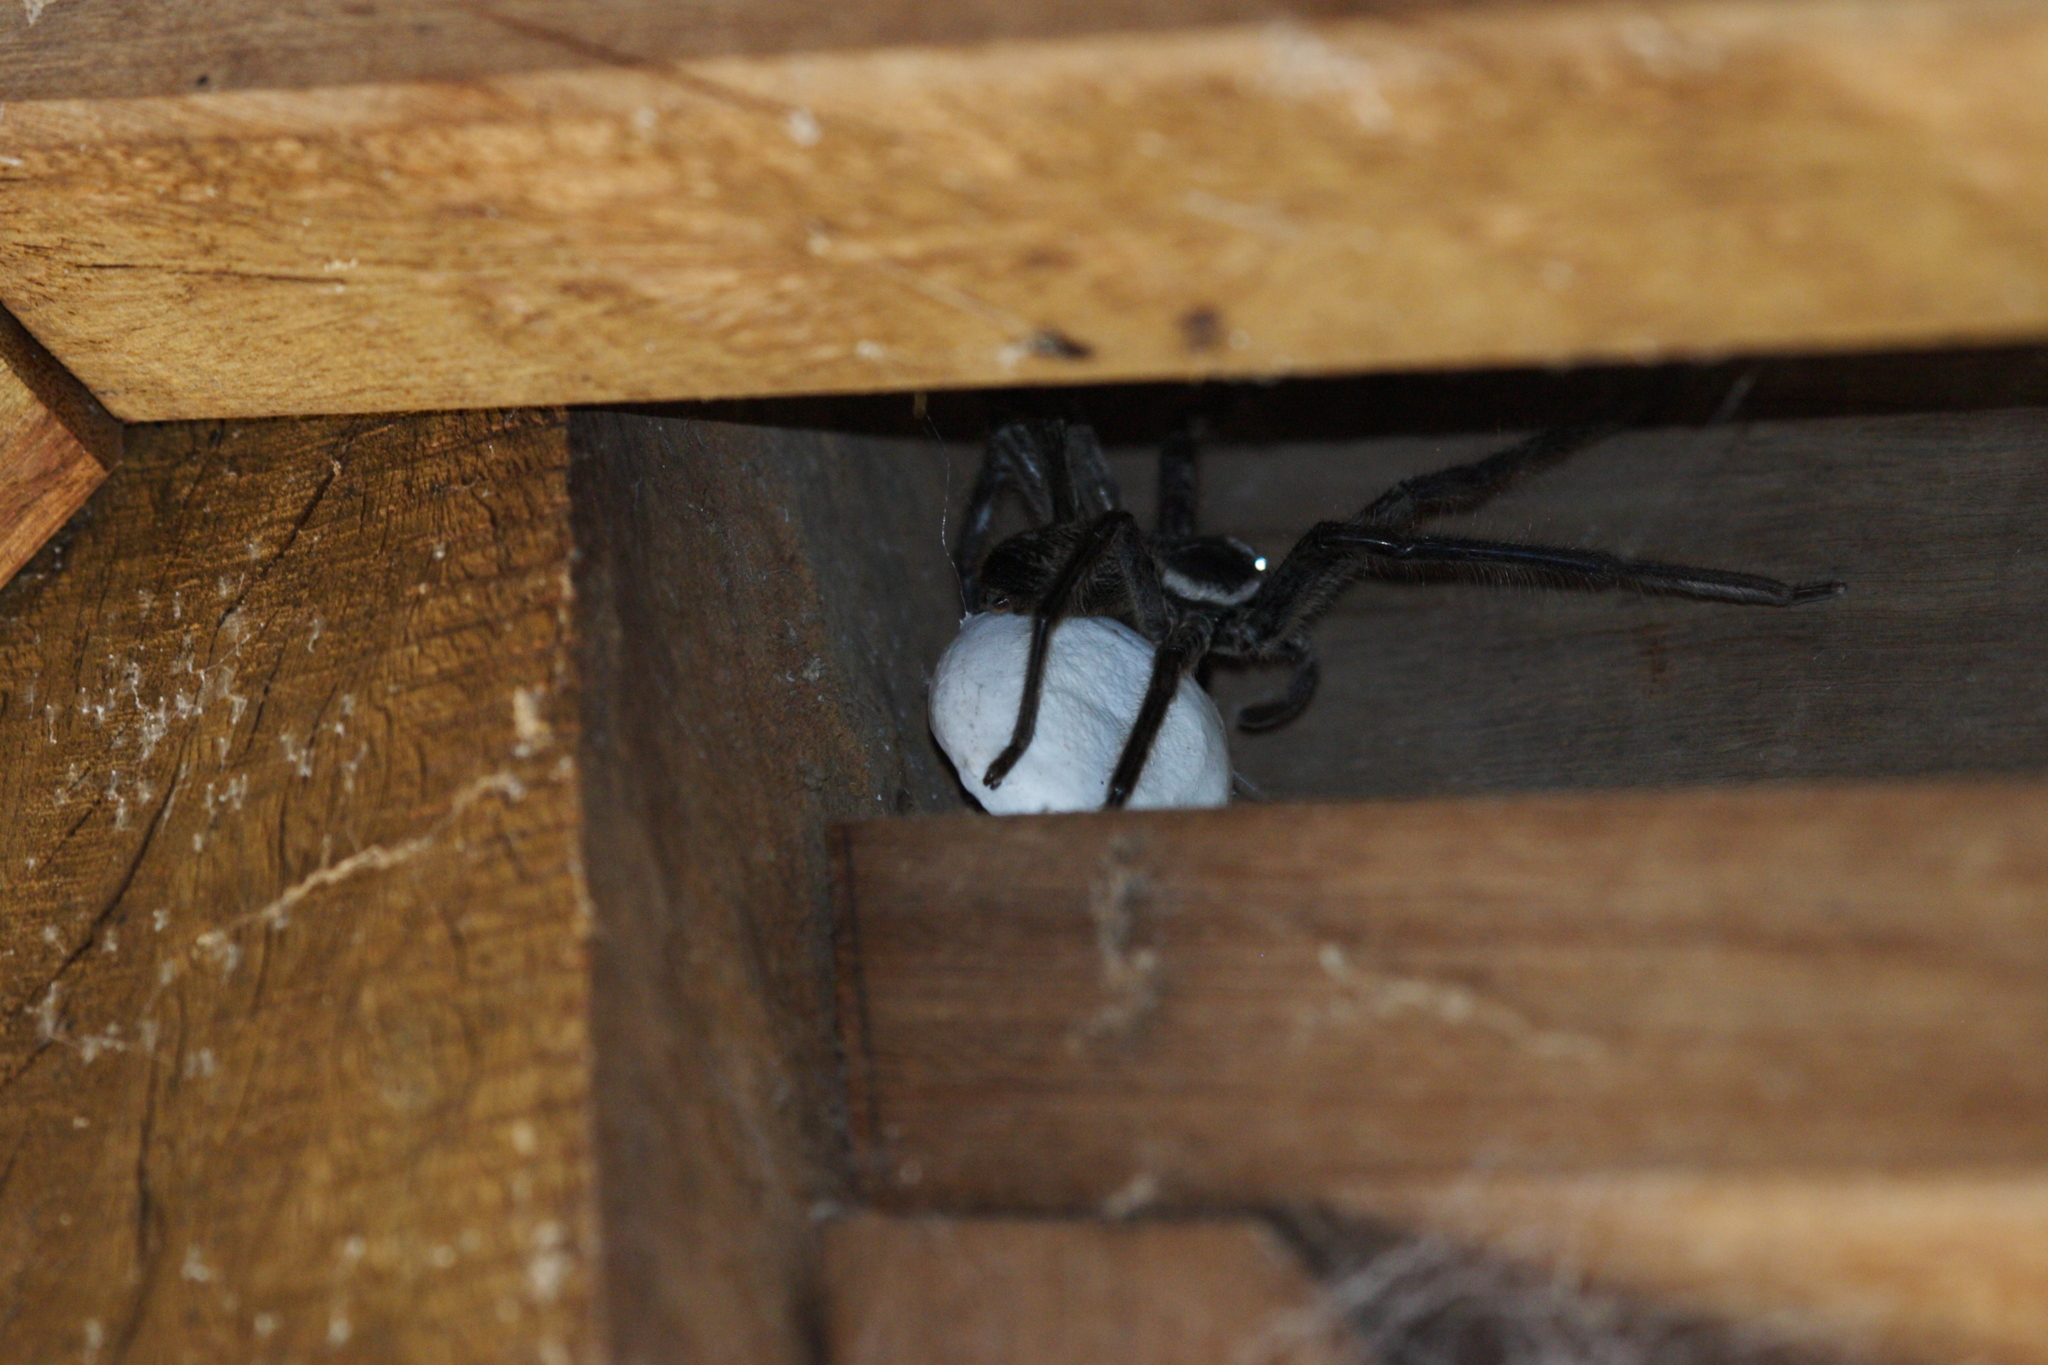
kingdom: Animalia
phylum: Arthropoda
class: Arachnida
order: Araneae
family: Sparassidae
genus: Holconia
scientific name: Holconia immanis
